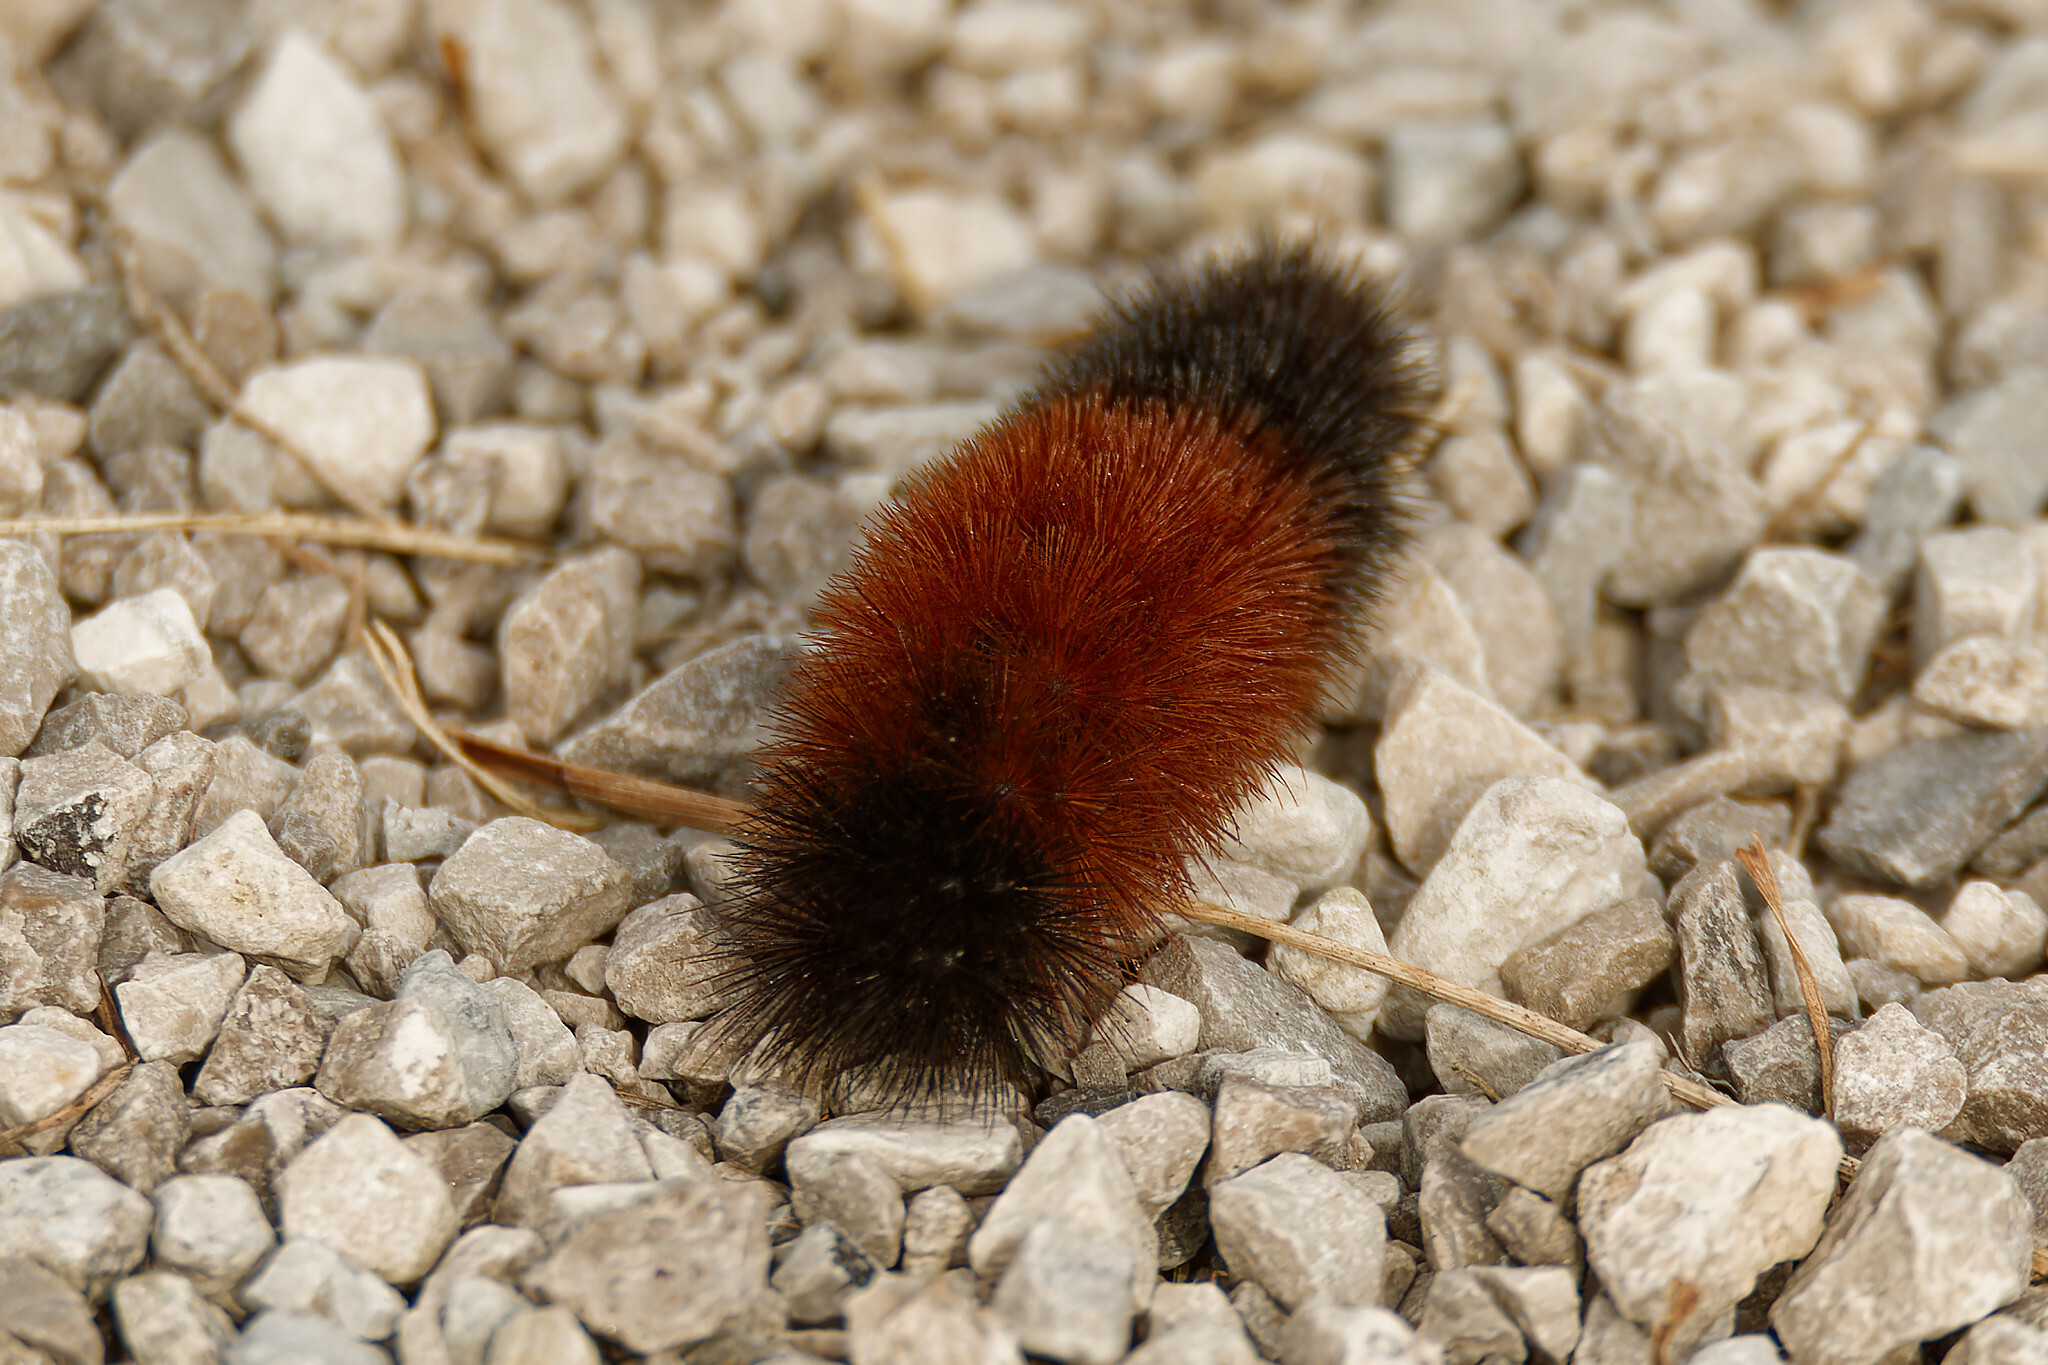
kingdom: Animalia
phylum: Arthropoda
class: Insecta
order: Lepidoptera
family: Erebidae
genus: Pyrrharctia
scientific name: Pyrrharctia isabella
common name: Isabella tiger moth
